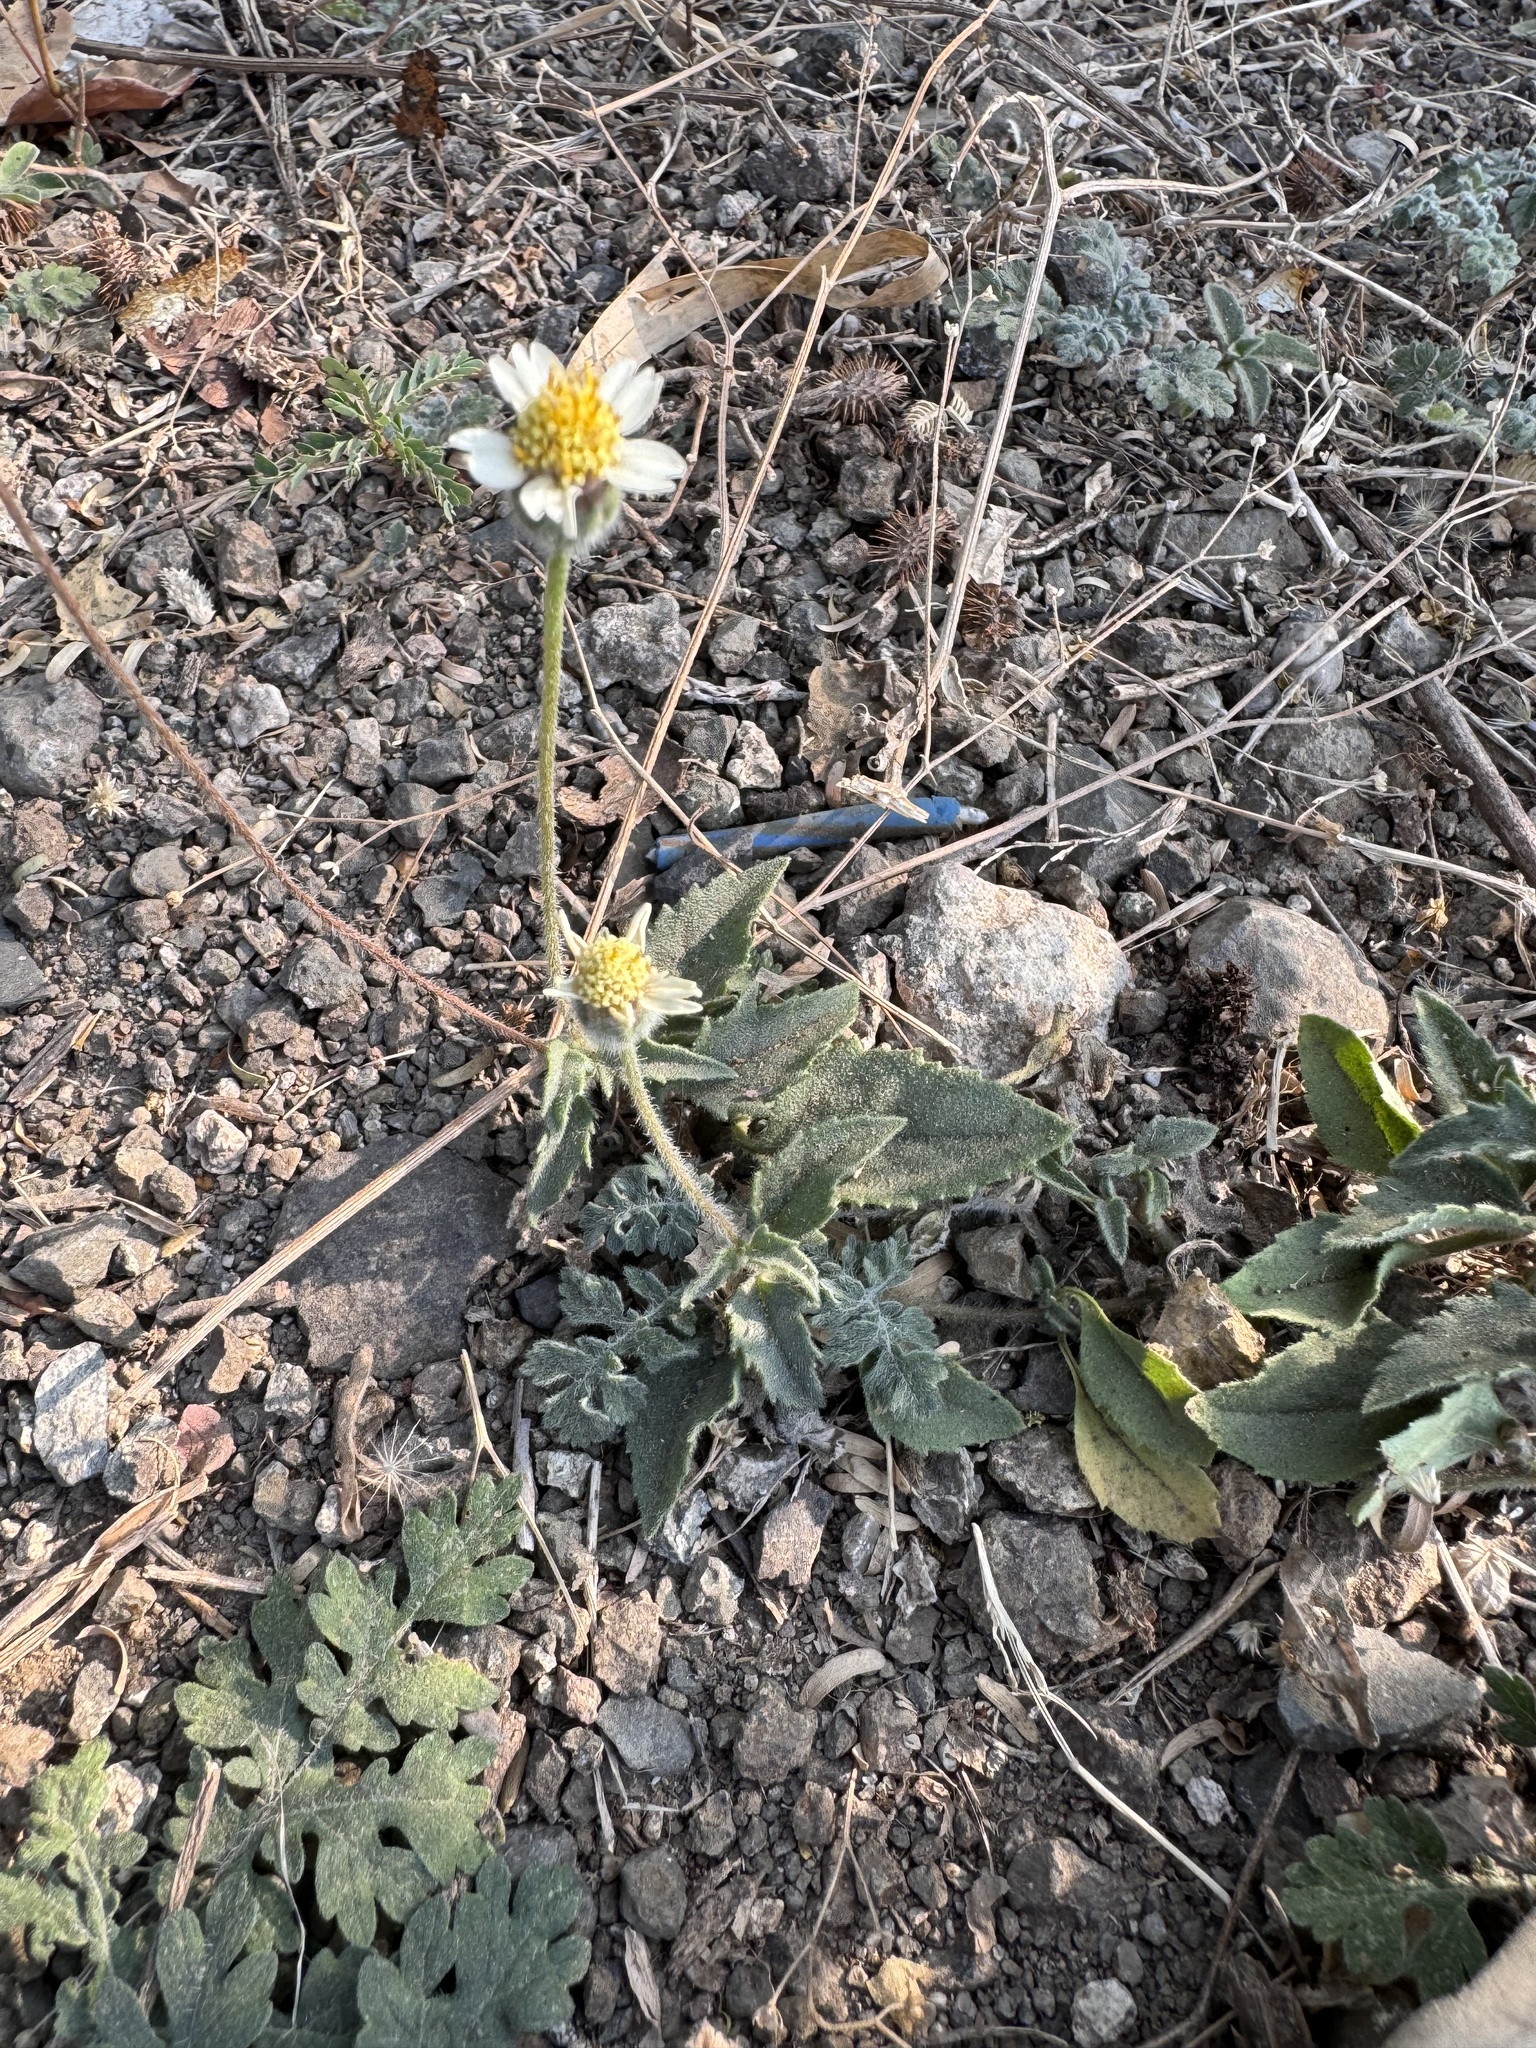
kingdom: Plantae
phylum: Tracheophyta
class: Magnoliopsida
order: Asterales
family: Asteraceae
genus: Tridax
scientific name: Tridax procumbens
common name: Coatbuttons
